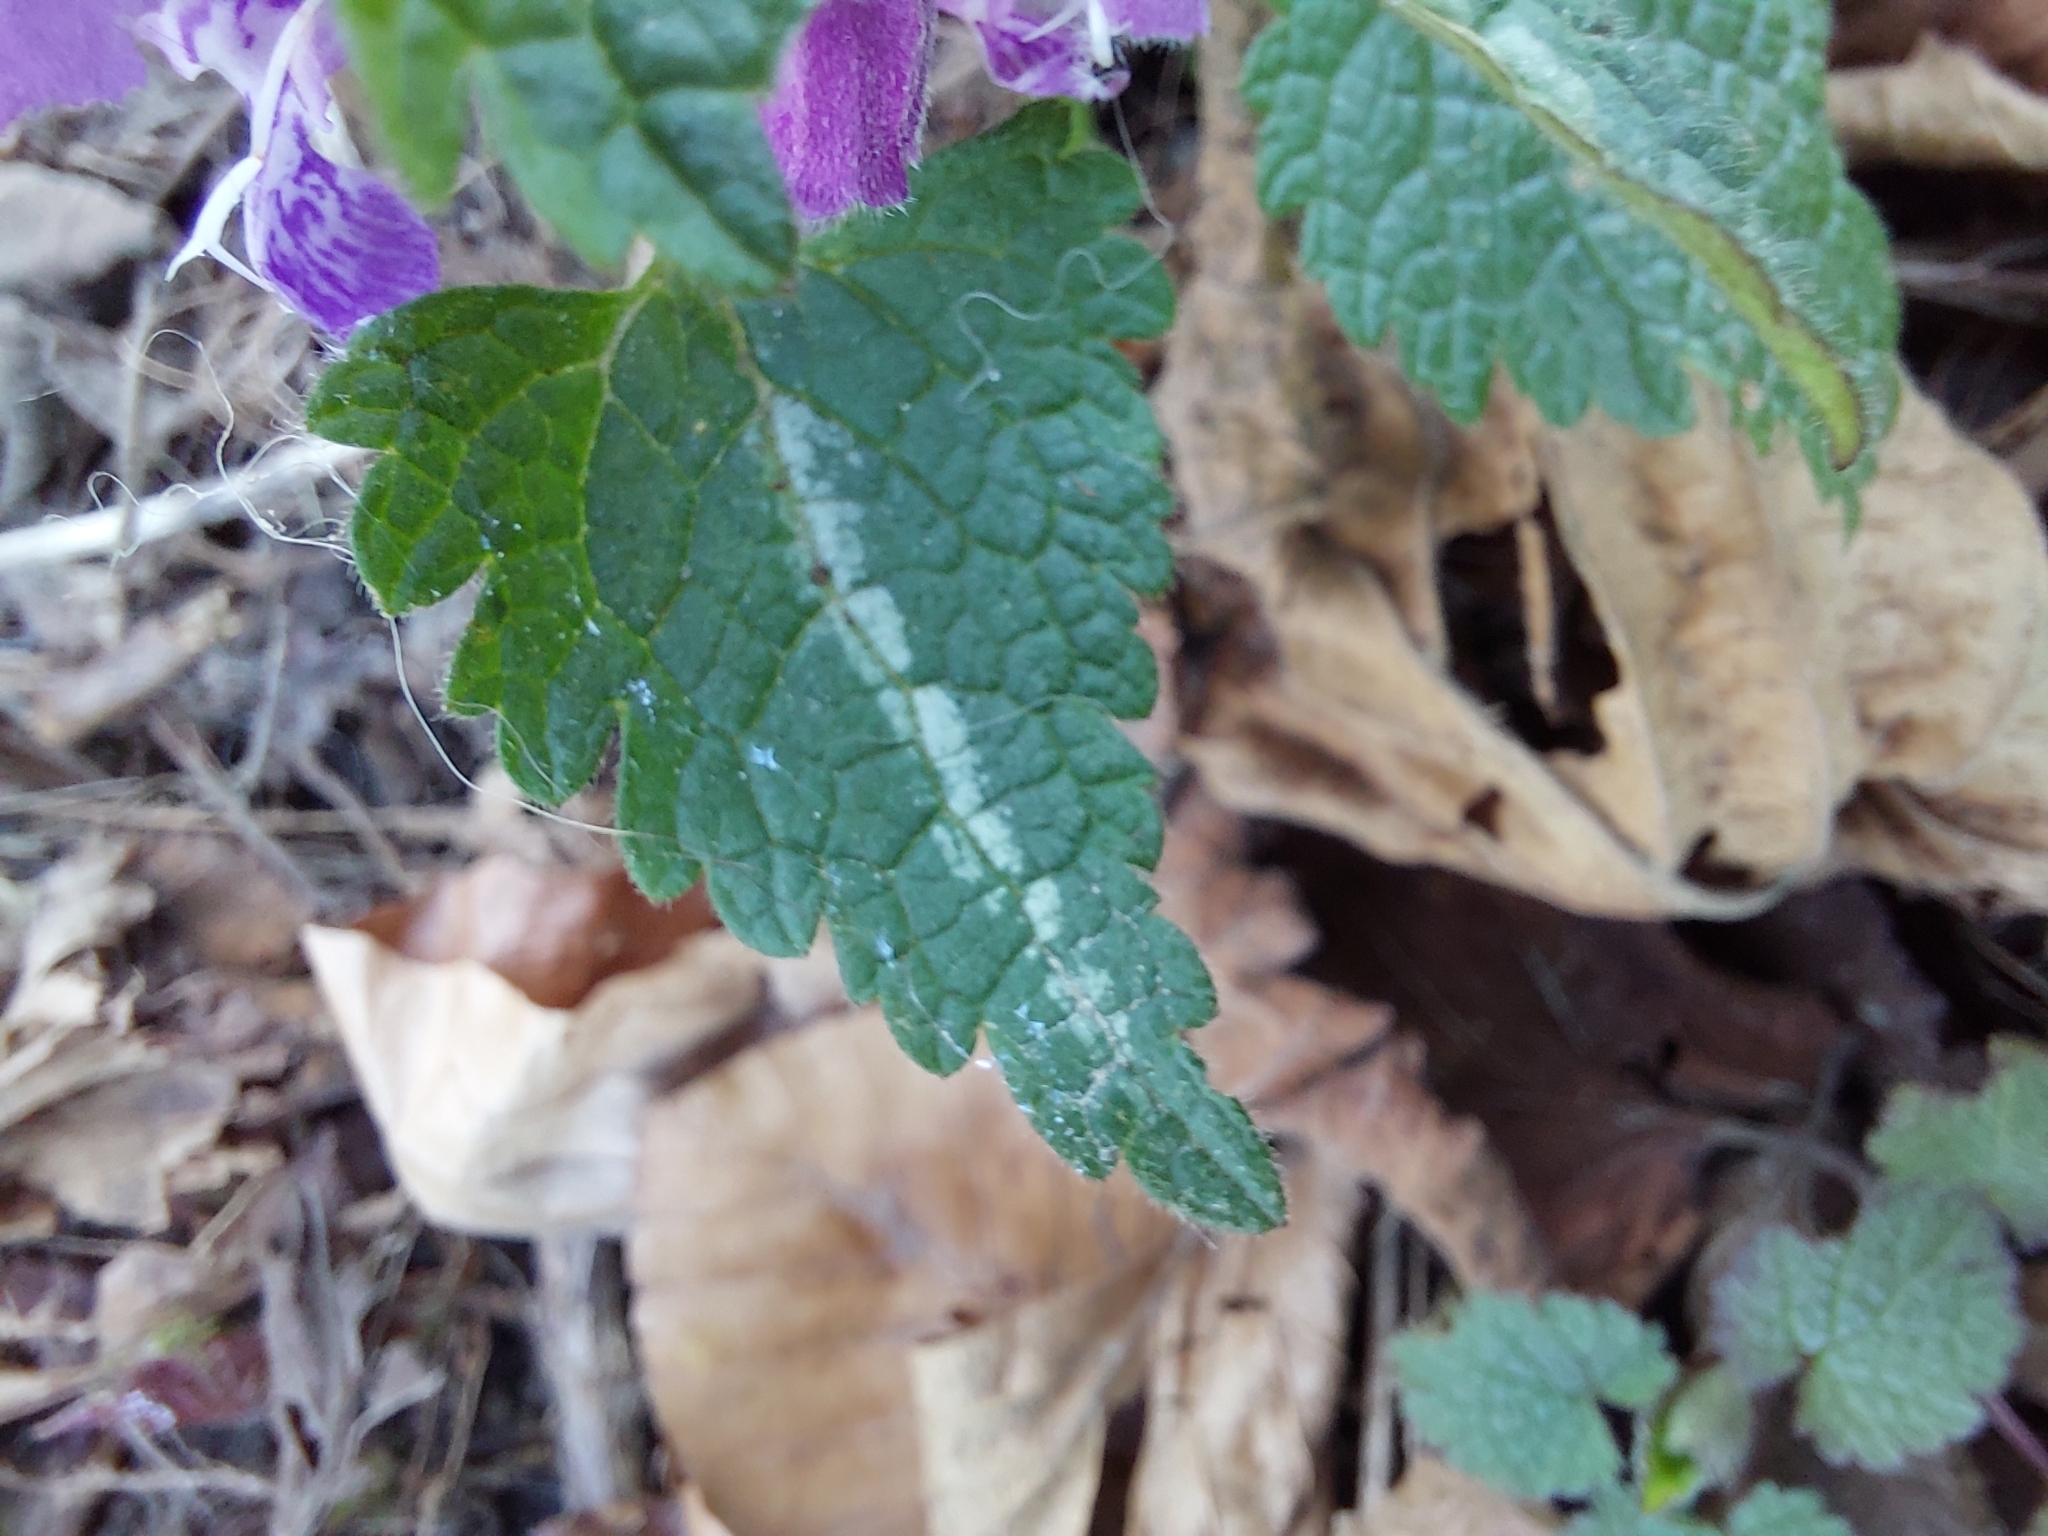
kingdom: Plantae
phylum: Tracheophyta
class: Magnoliopsida
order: Lamiales
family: Lamiaceae
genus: Lamium
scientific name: Lamium maculatum
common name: Spotted dead-nettle
